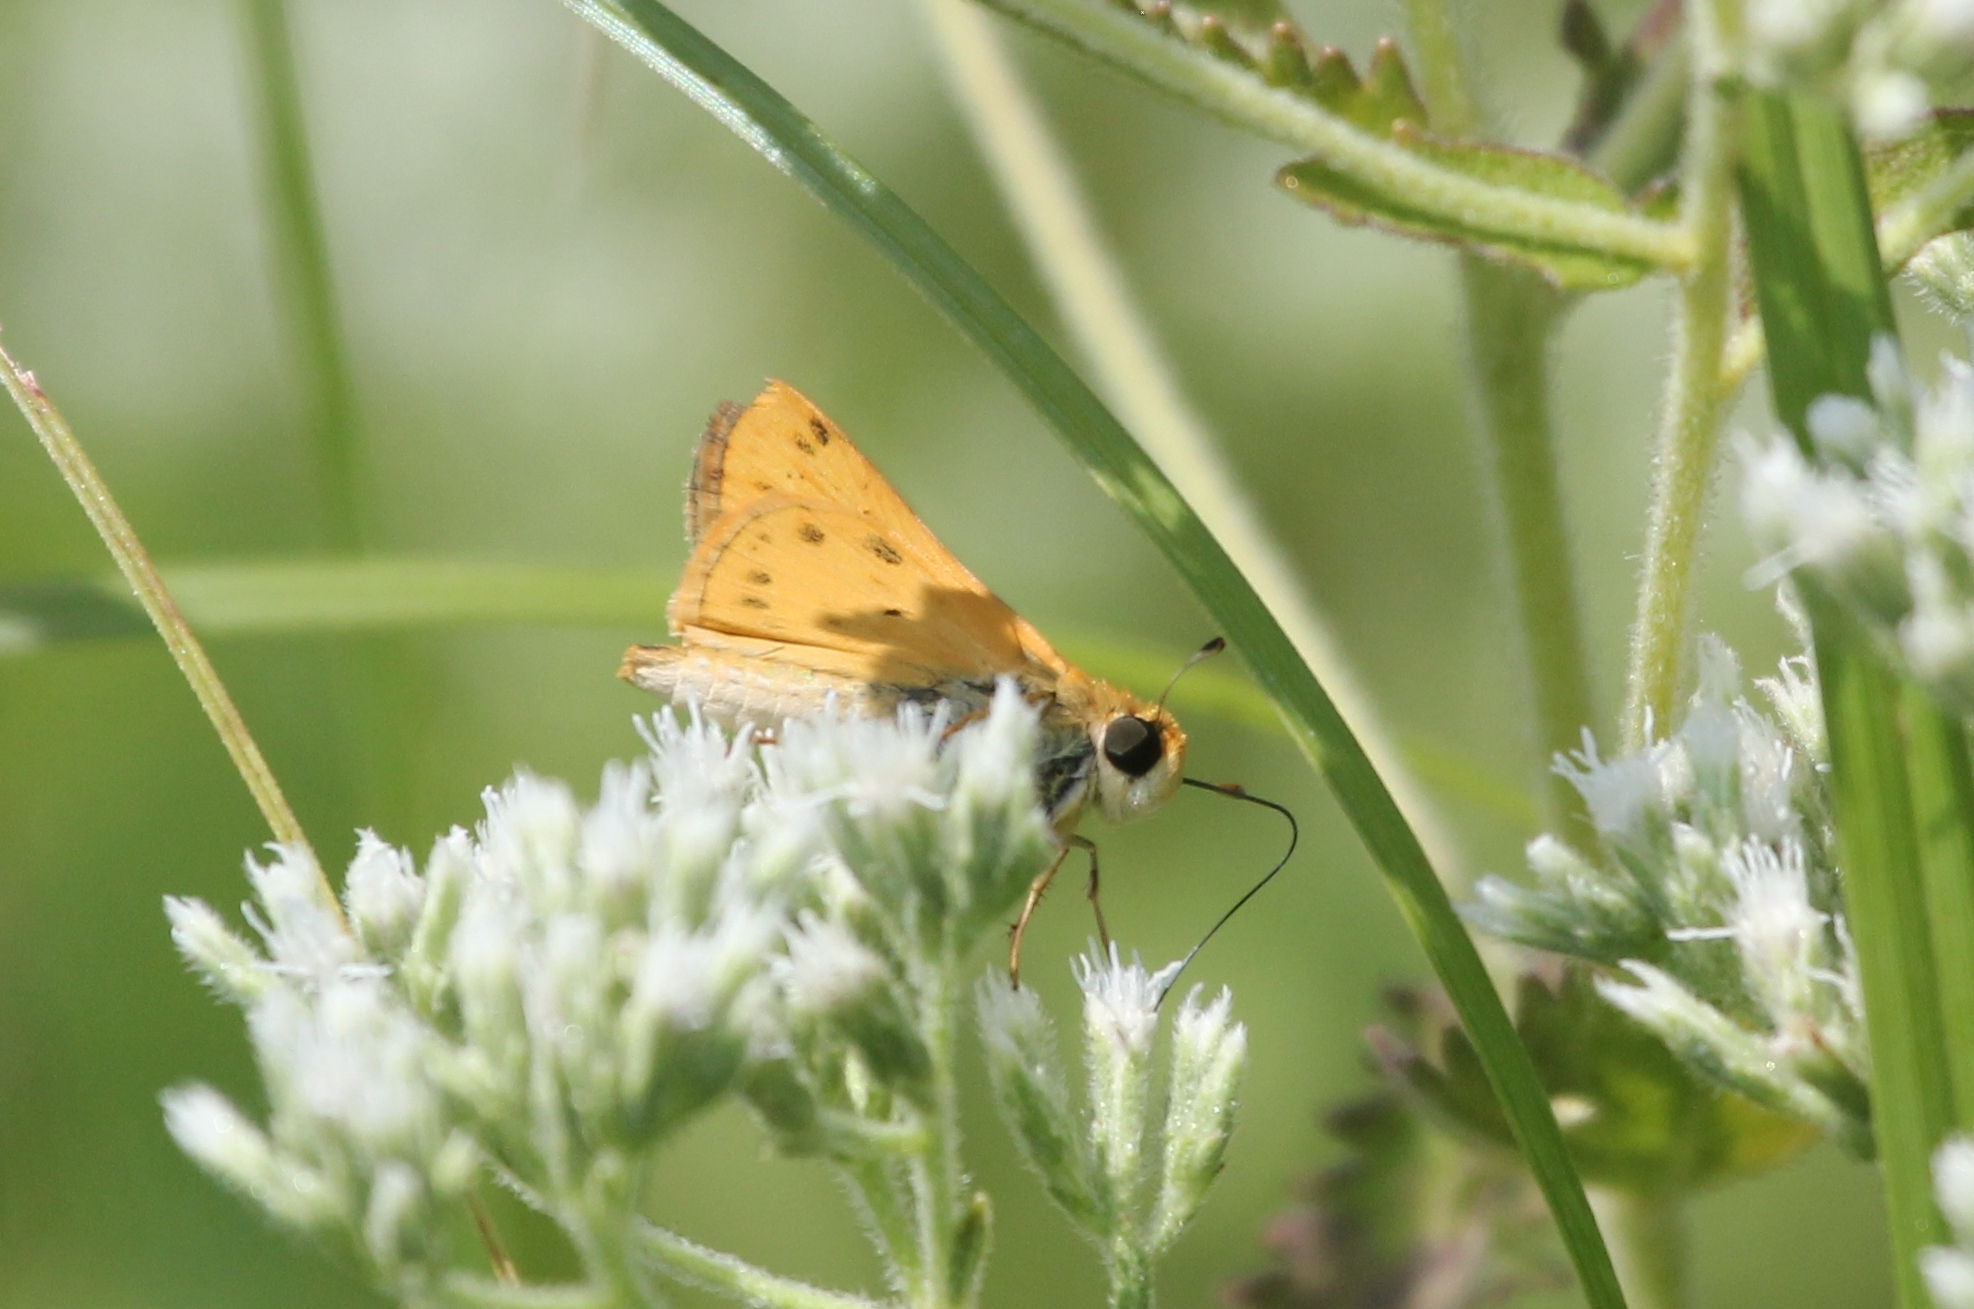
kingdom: Animalia
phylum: Arthropoda
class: Insecta
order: Lepidoptera
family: Hesperiidae
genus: Hylephila
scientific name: Hylephila phyleus
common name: Fiery skipper
